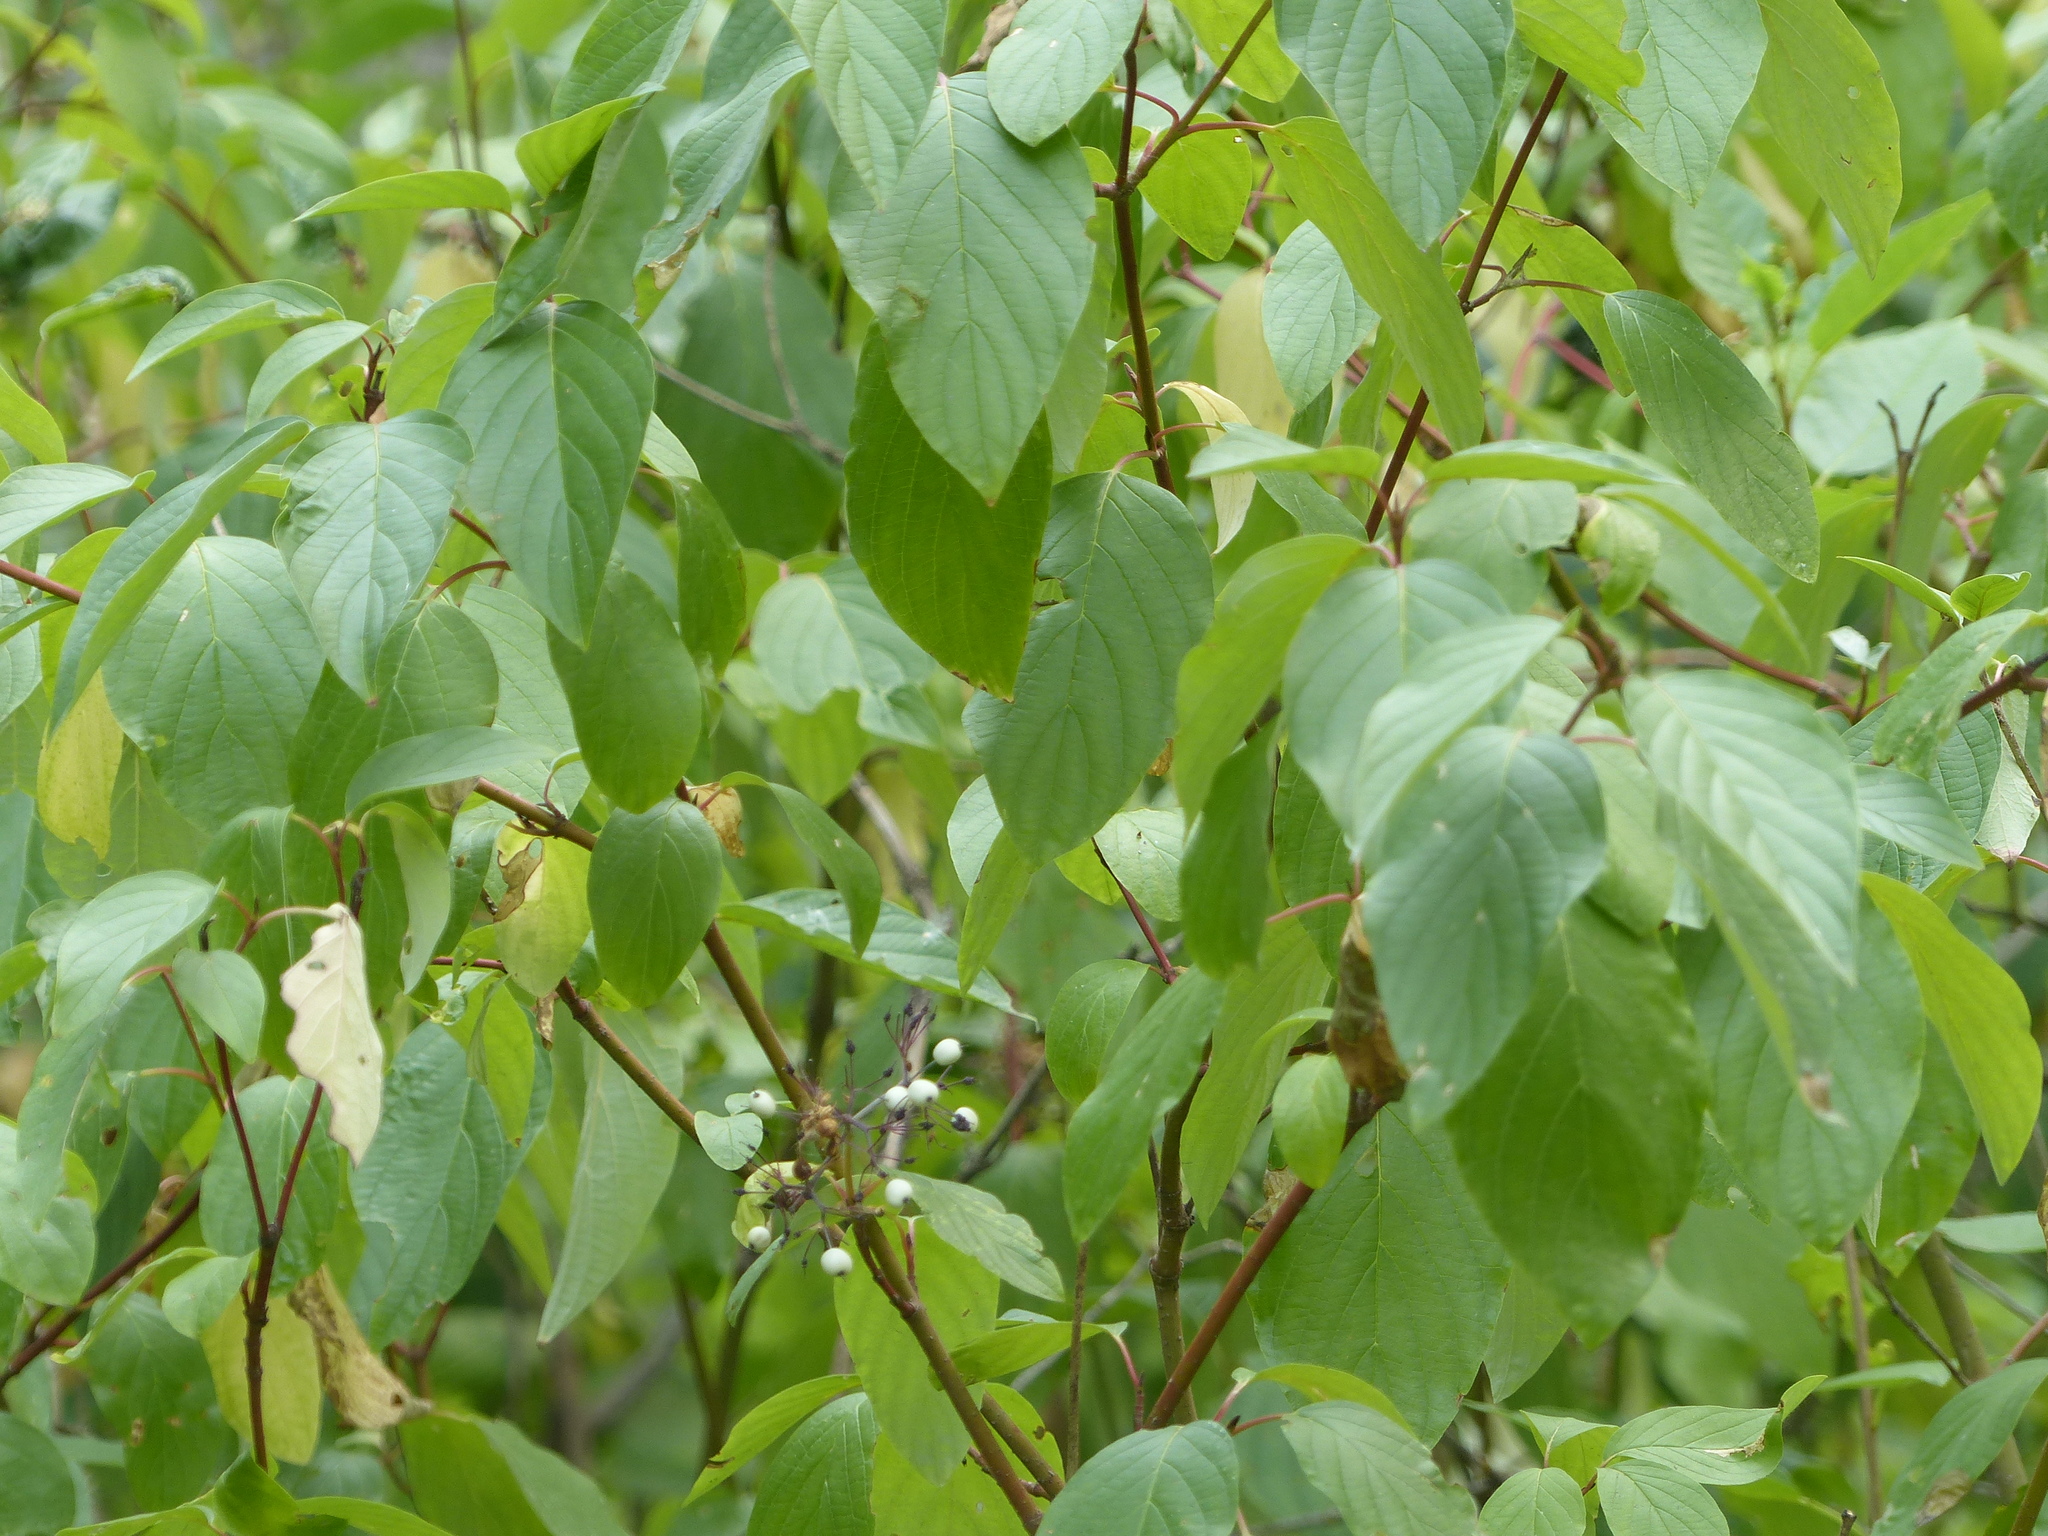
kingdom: Plantae
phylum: Tracheophyta
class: Magnoliopsida
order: Cornales
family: Cornaceae
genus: Cornus
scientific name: Cornus sericea
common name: Red-osier dogwood
